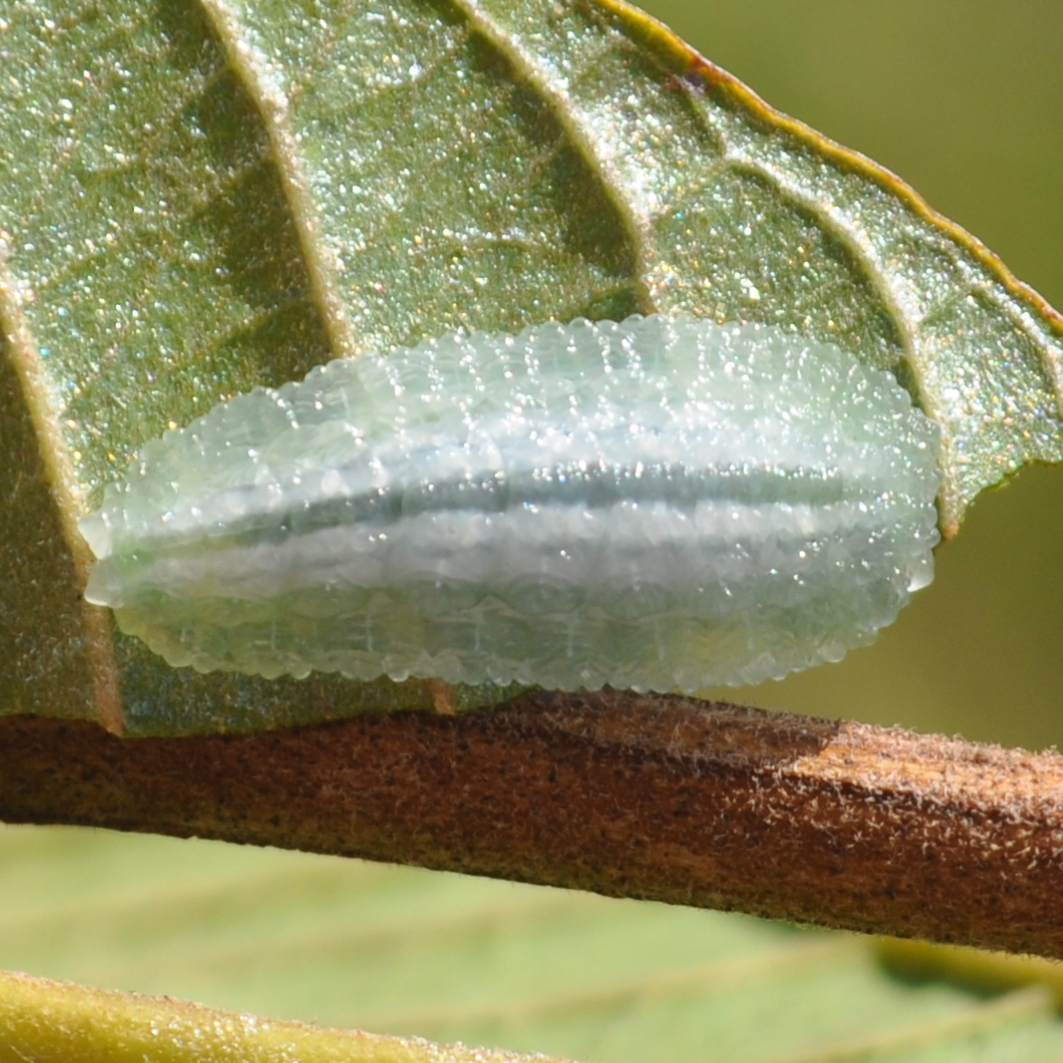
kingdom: Animalia
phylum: Arthropoda
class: Insecta
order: Lepidoptera
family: Dalceridae
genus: Acraga
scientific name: Acraga flava
